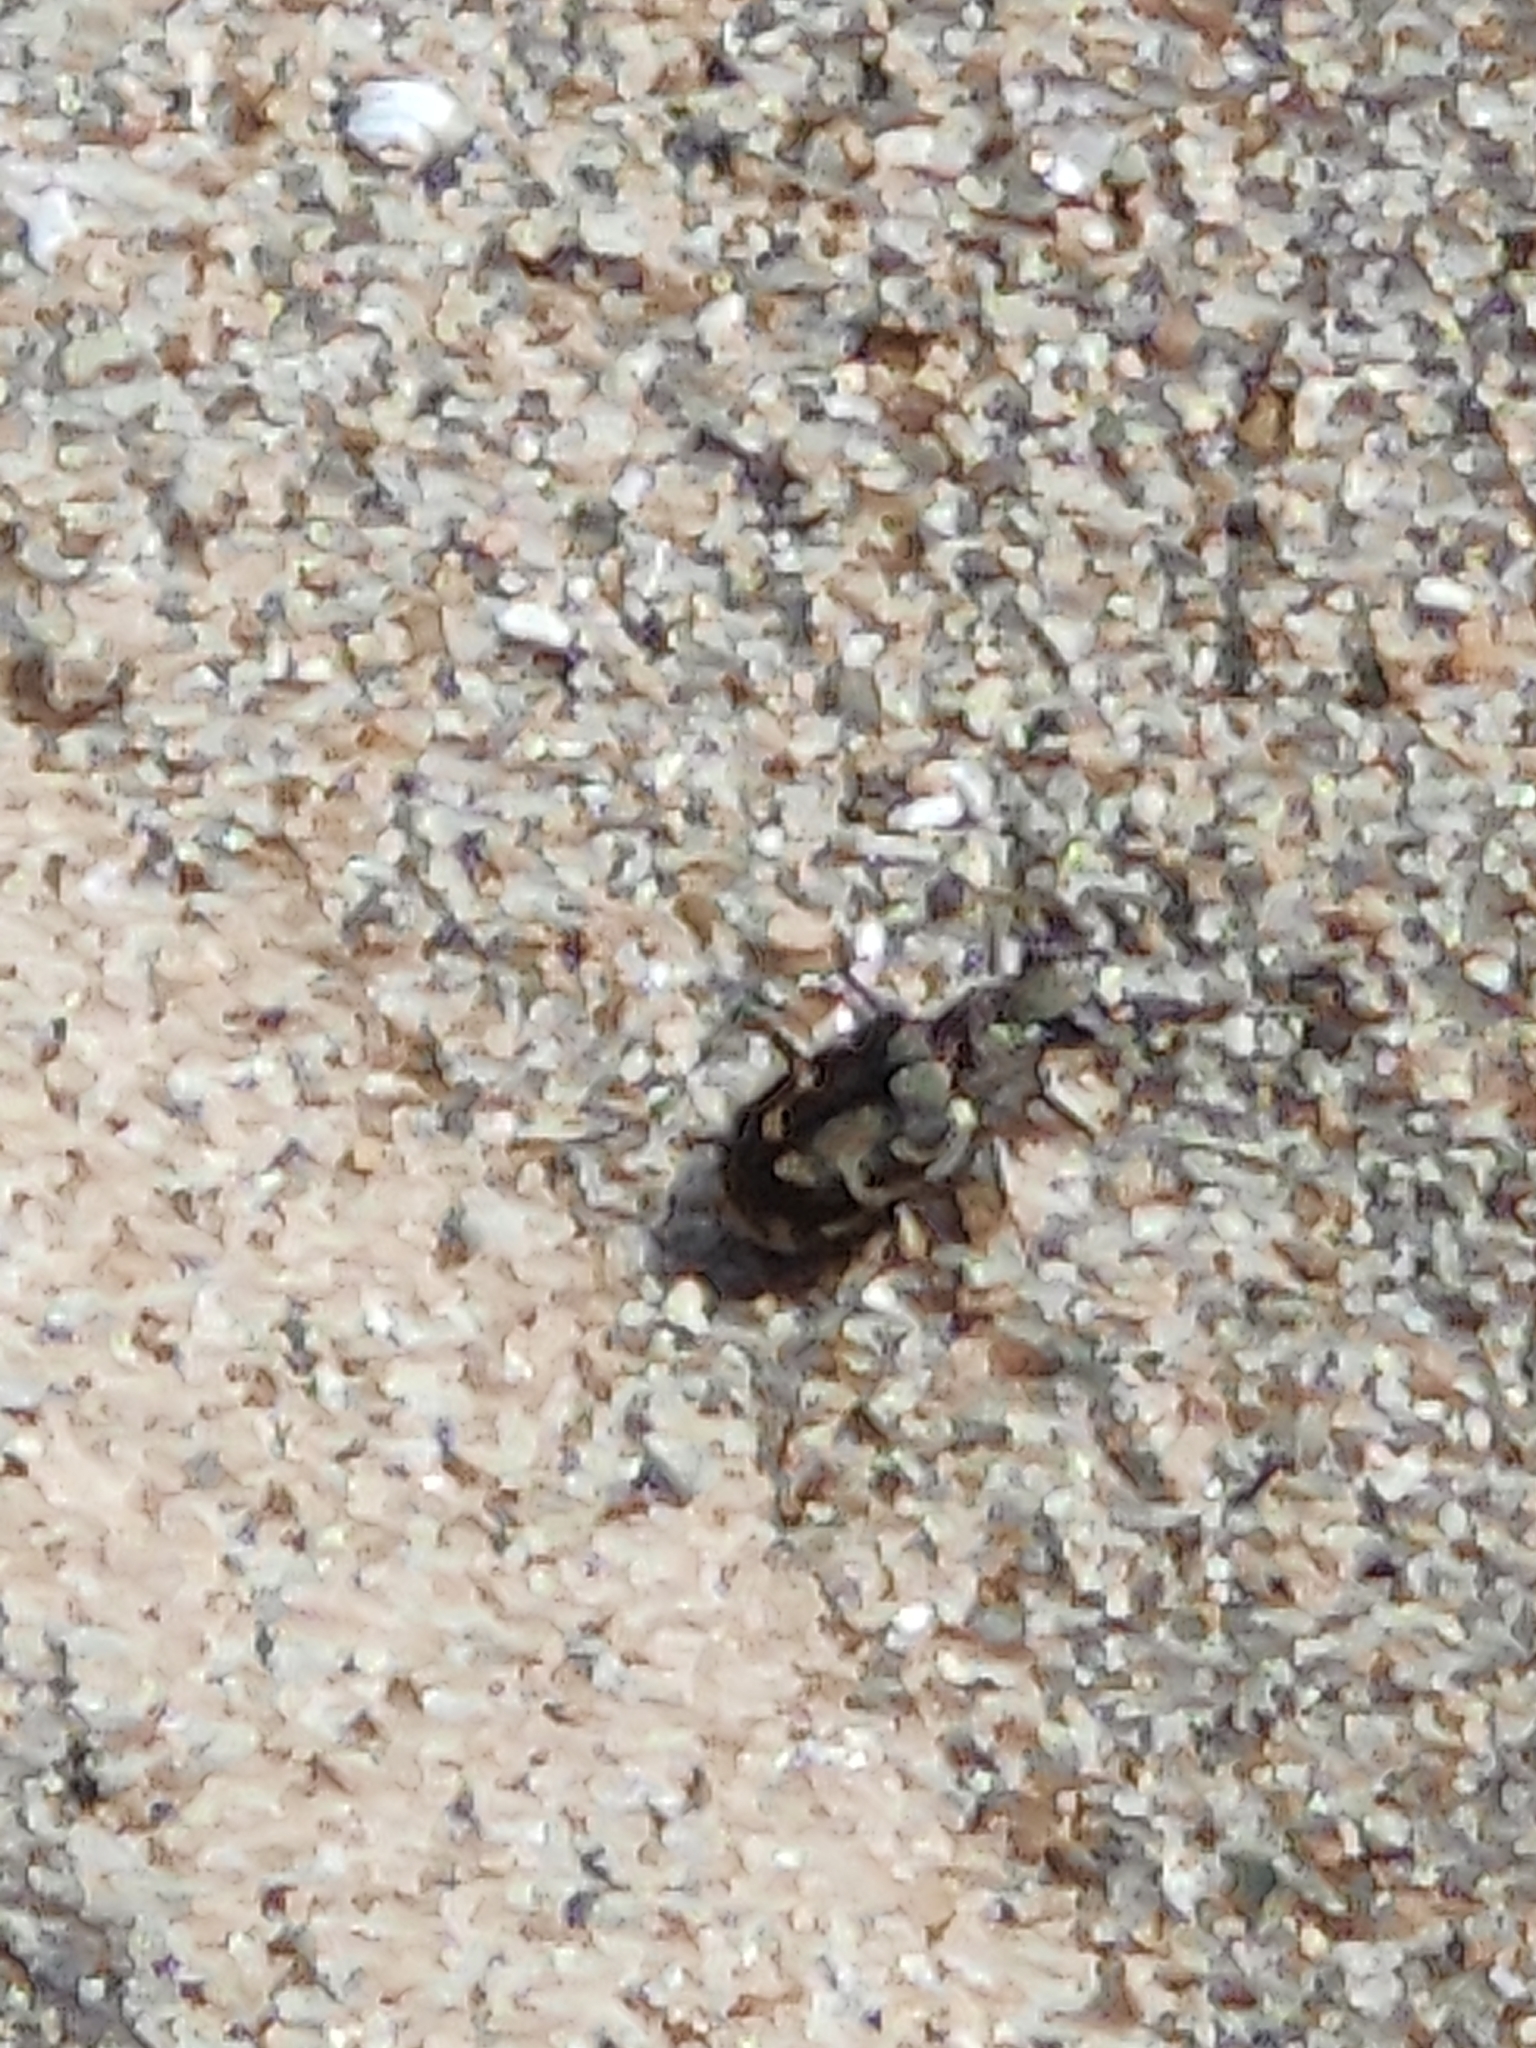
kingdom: Animalia
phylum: Arthropoda
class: Insecta
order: Coleoptera
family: Carabidae
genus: Cicindela
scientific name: Cicindela repanda
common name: Bronzed tiger beetle
